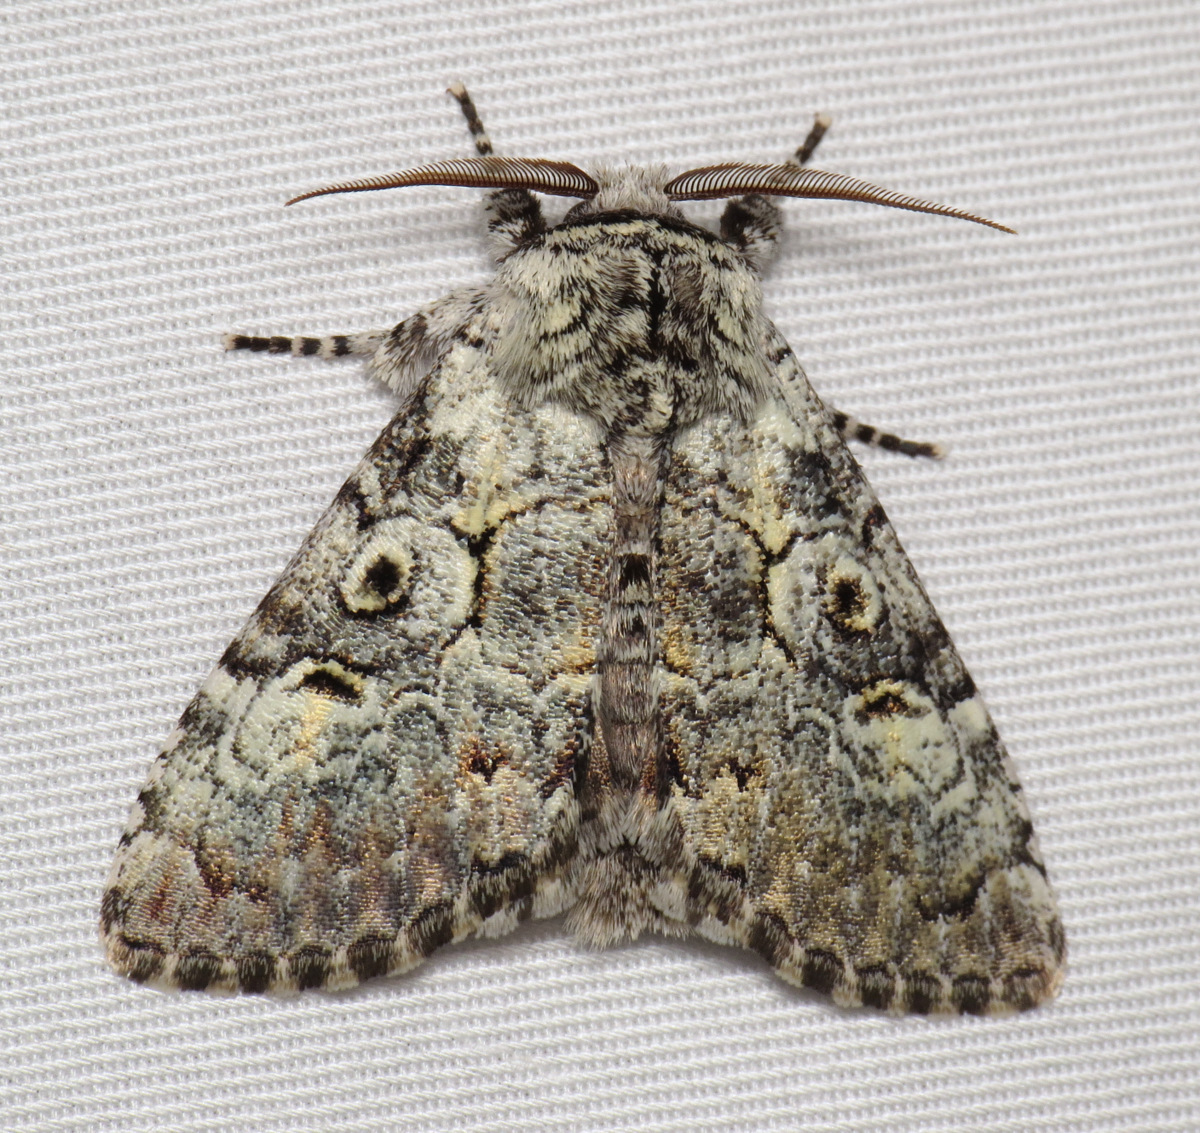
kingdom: Animalia
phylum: Arthropoda
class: Insecta
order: Lepidoptera
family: Noctuidae
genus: Charadra
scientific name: Charadra deridens
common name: Marbled tuffet
